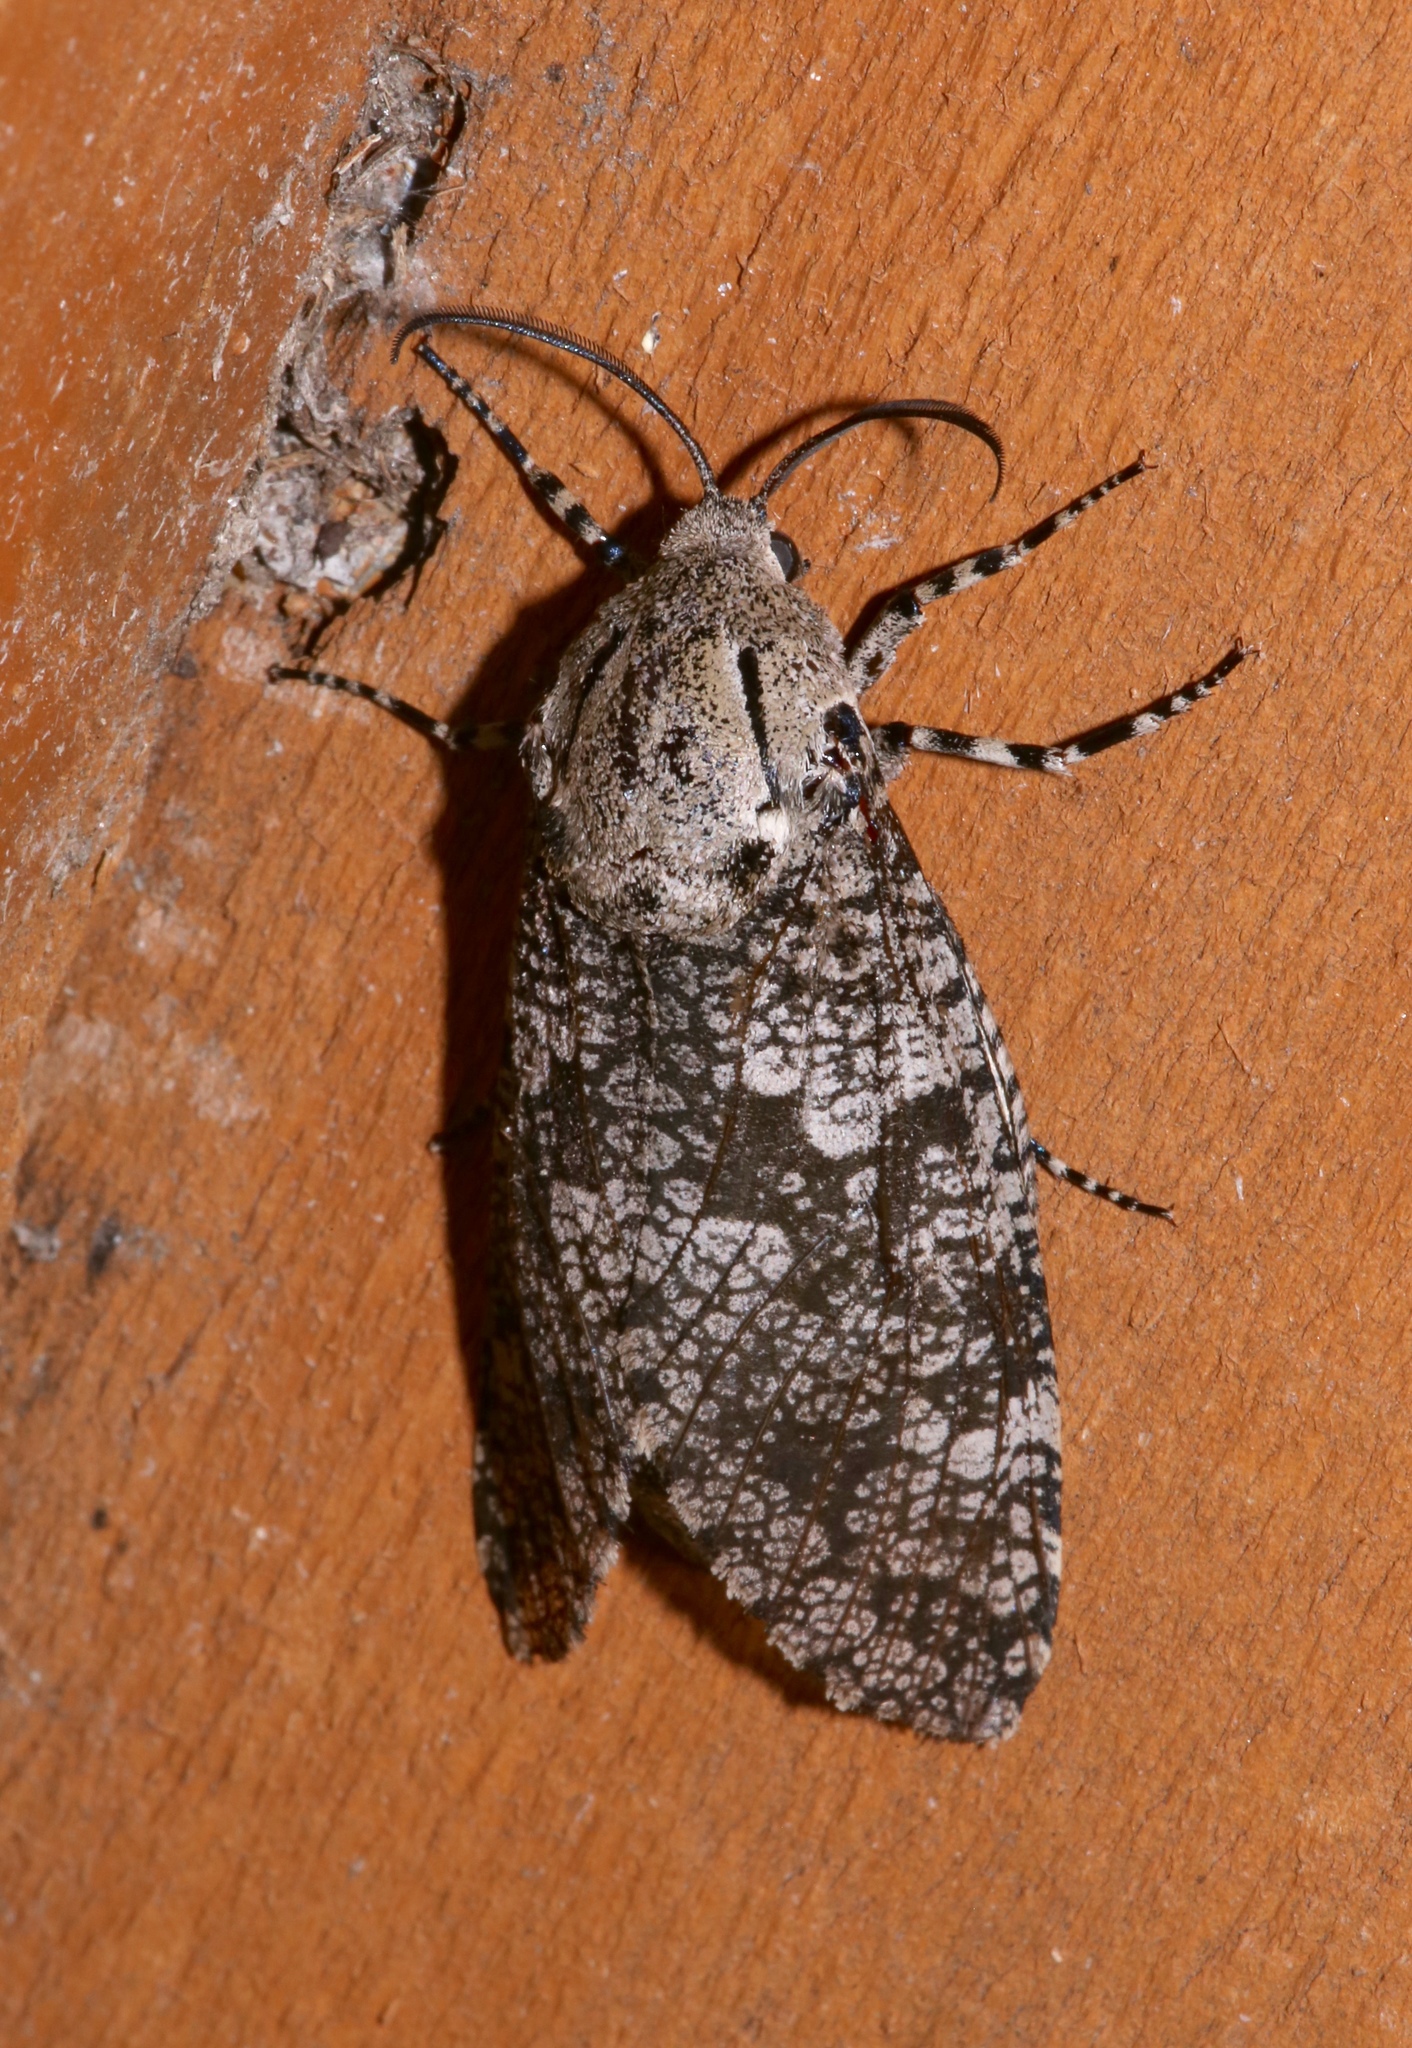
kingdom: Animalia
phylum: Arthropoda
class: Insecta
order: Lepidoptera
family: Cossidae
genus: Prionoxystus
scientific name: Prionoxystus robiniae
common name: Carpenterworm
